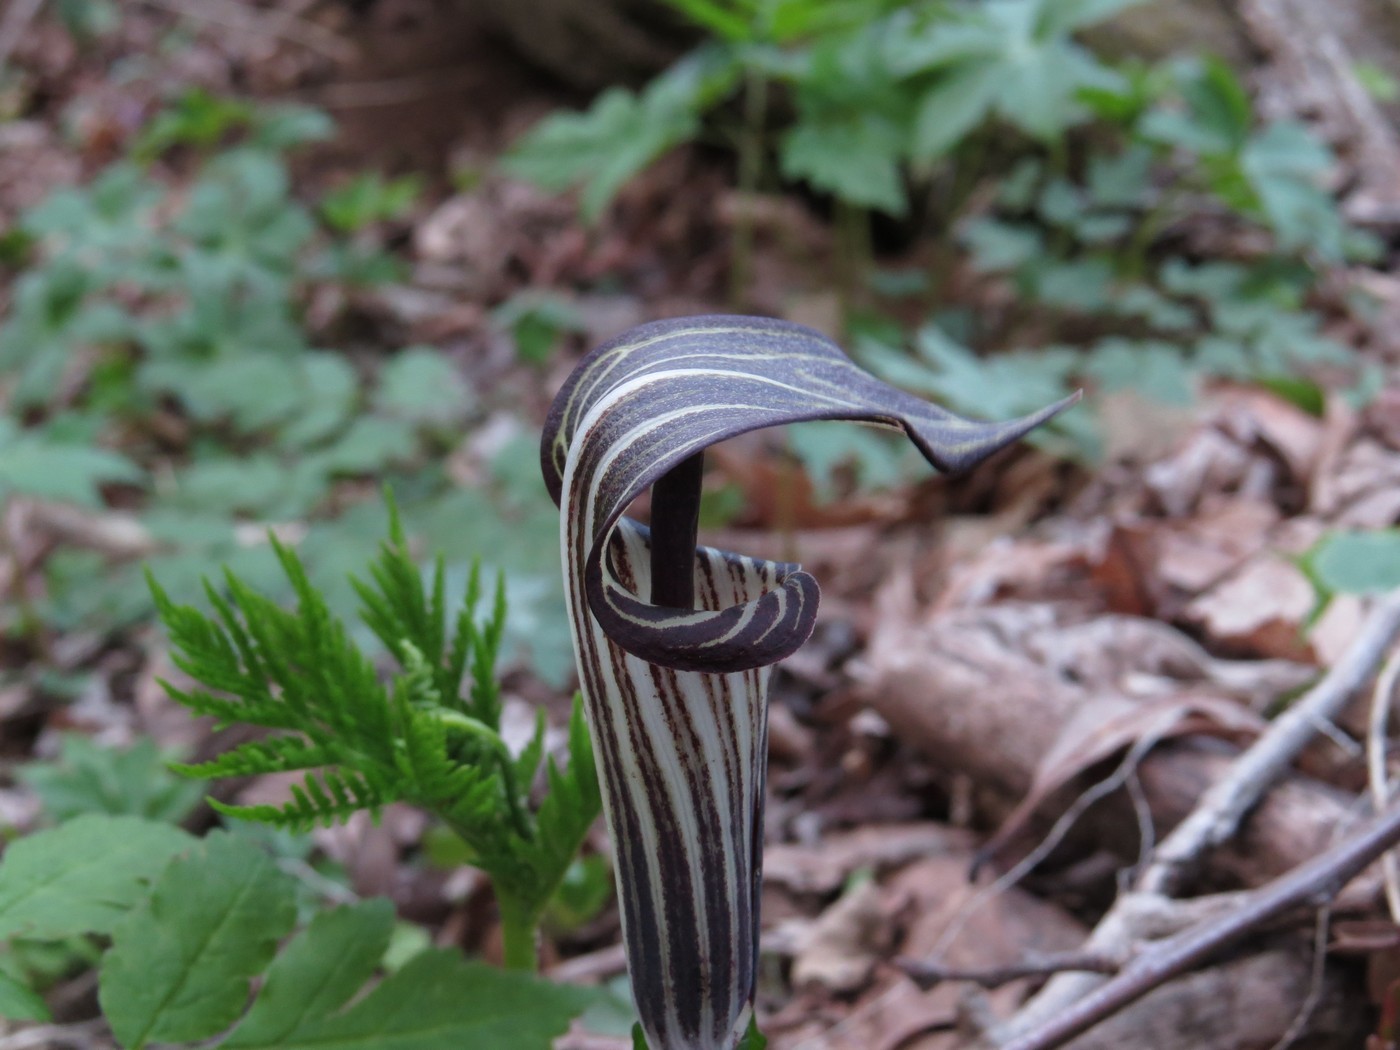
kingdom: Plantae
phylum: Tracheophyta
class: Liliopsida
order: Alismatales
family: Araceae
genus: Arisaema
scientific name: Arisaema triphyllum
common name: Jack-in-the-pulpit
